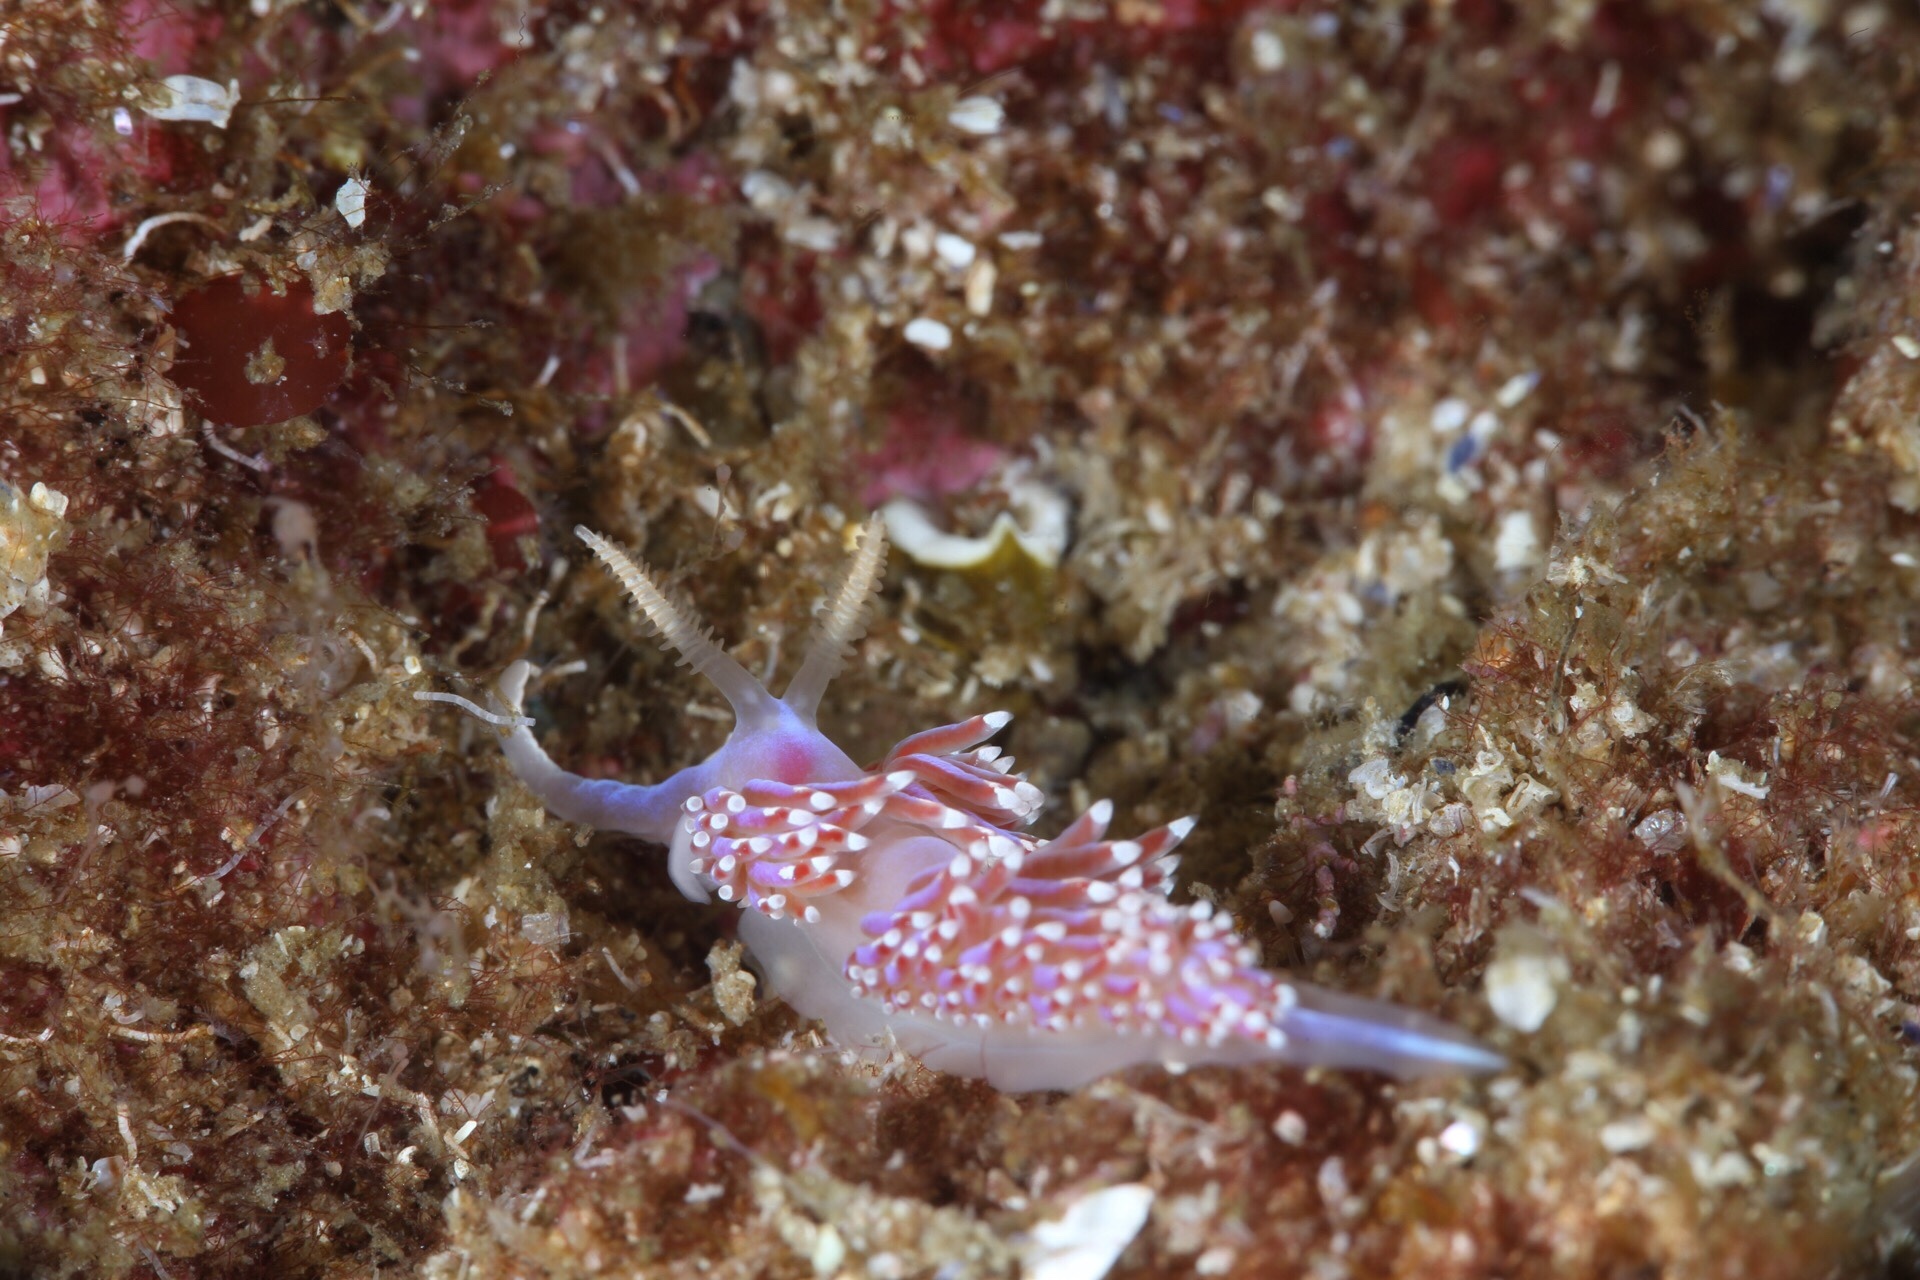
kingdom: Animalia
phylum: Mollusca
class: Gastropoda
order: Nudibranchia
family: Facelinidae
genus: Facelina
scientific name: Facelina auriculata
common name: Slender facelina
